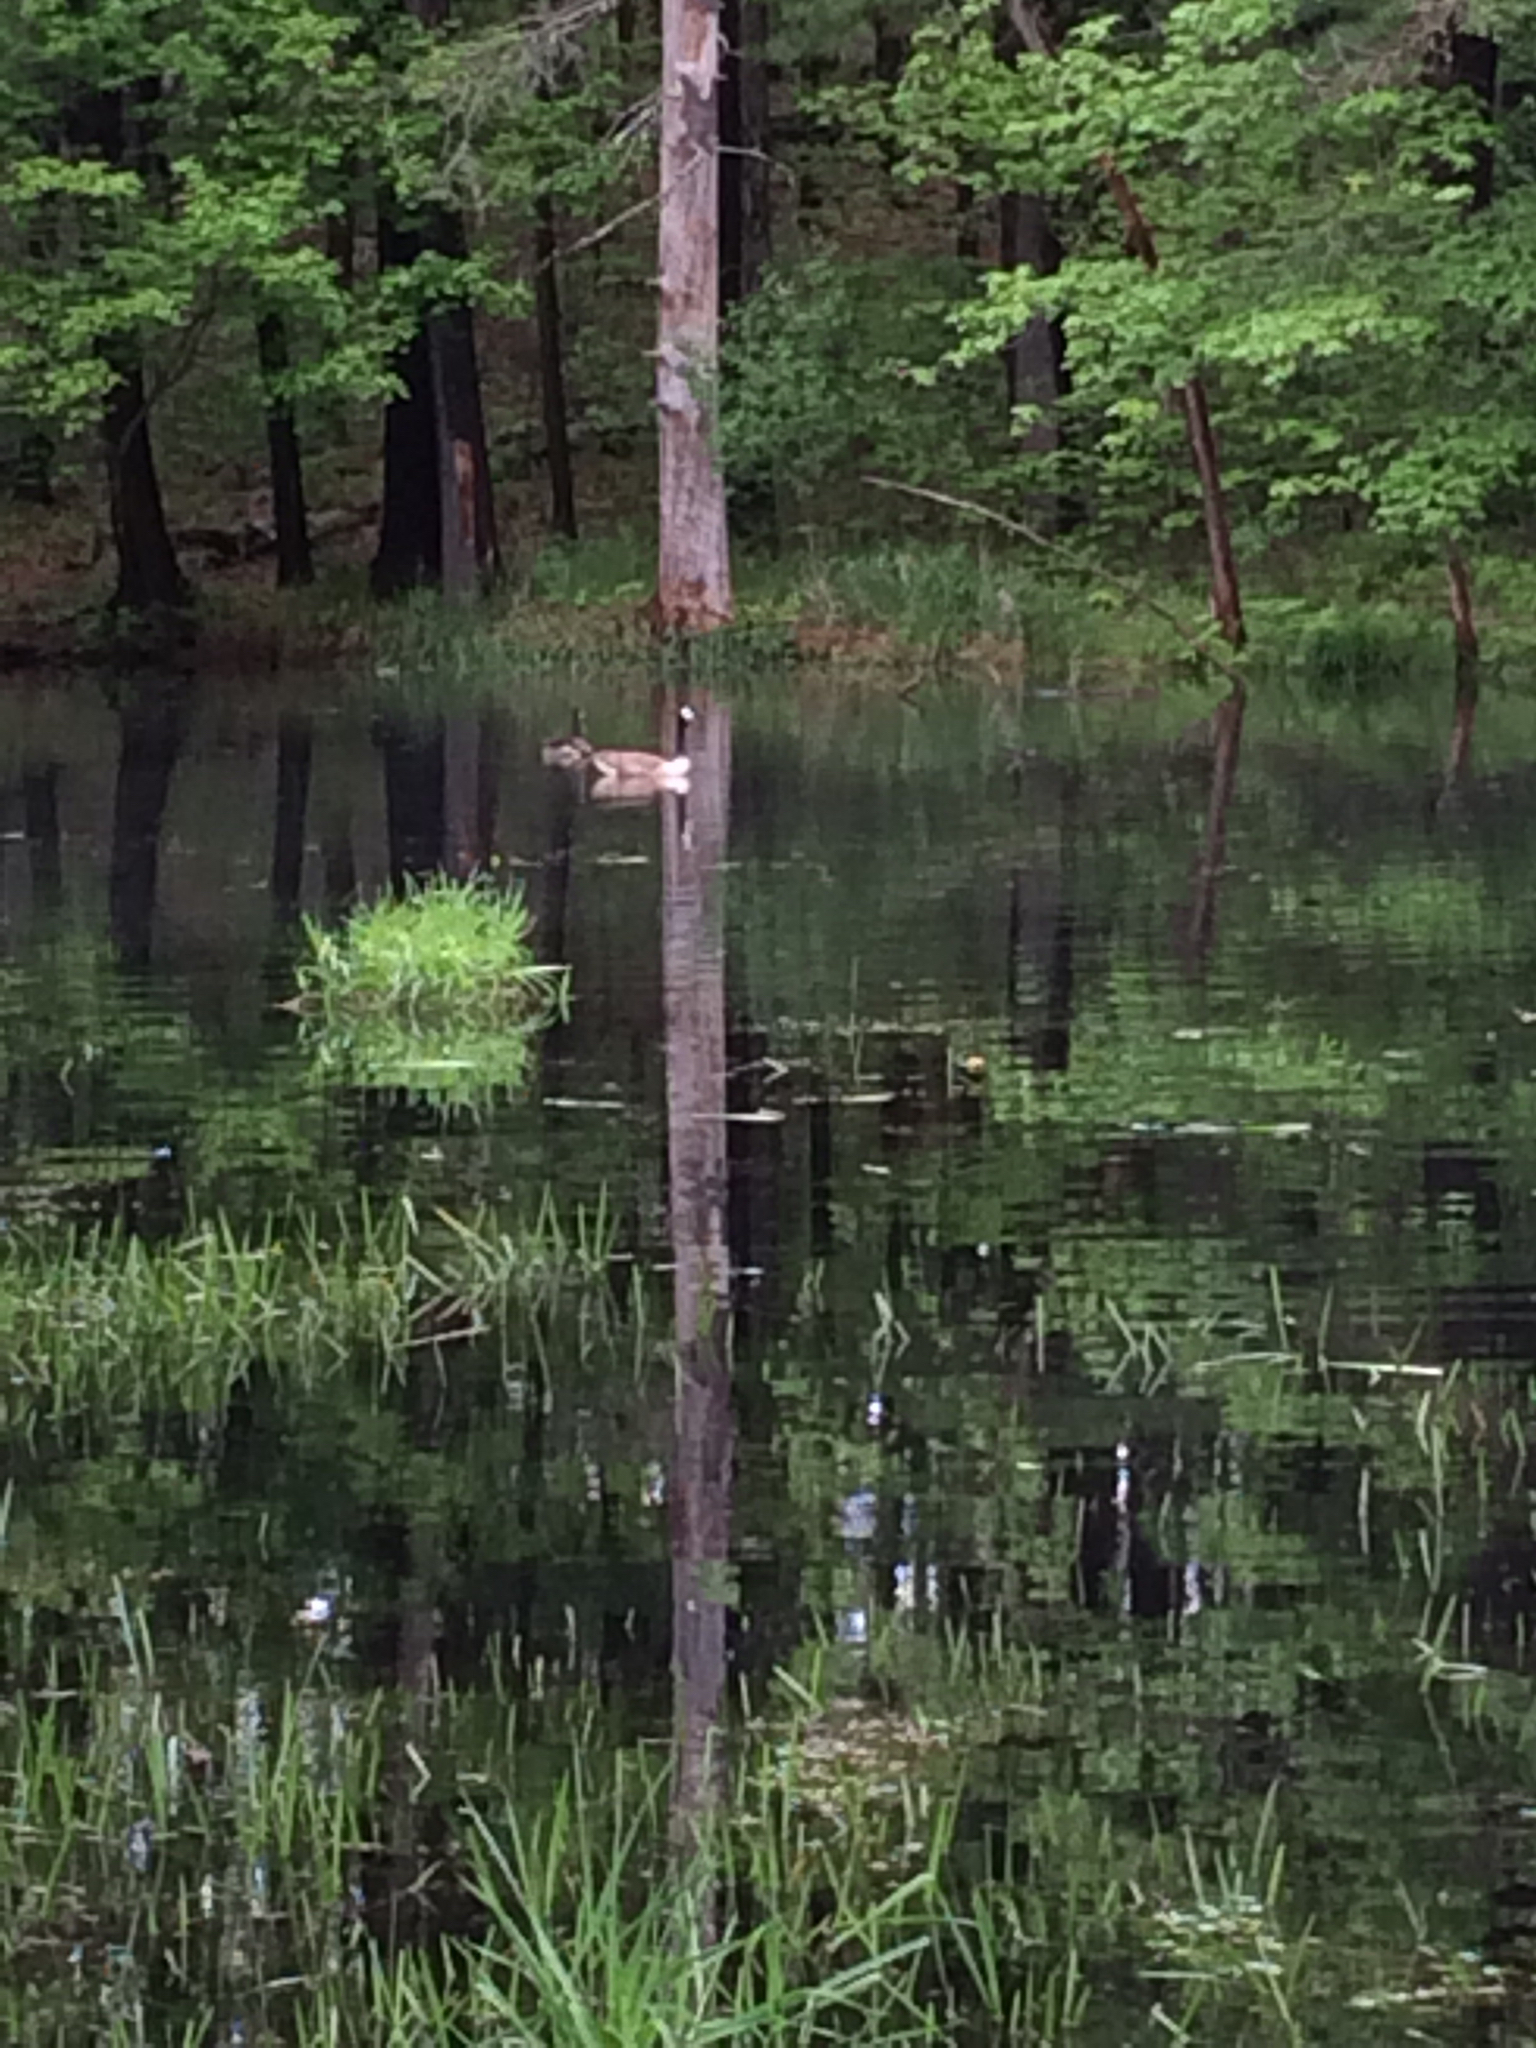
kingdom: Animalia
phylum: Chordata
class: Aves
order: Anseriformes
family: Anatidae
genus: Branta
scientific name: Branta canadensis
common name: Canada goose
